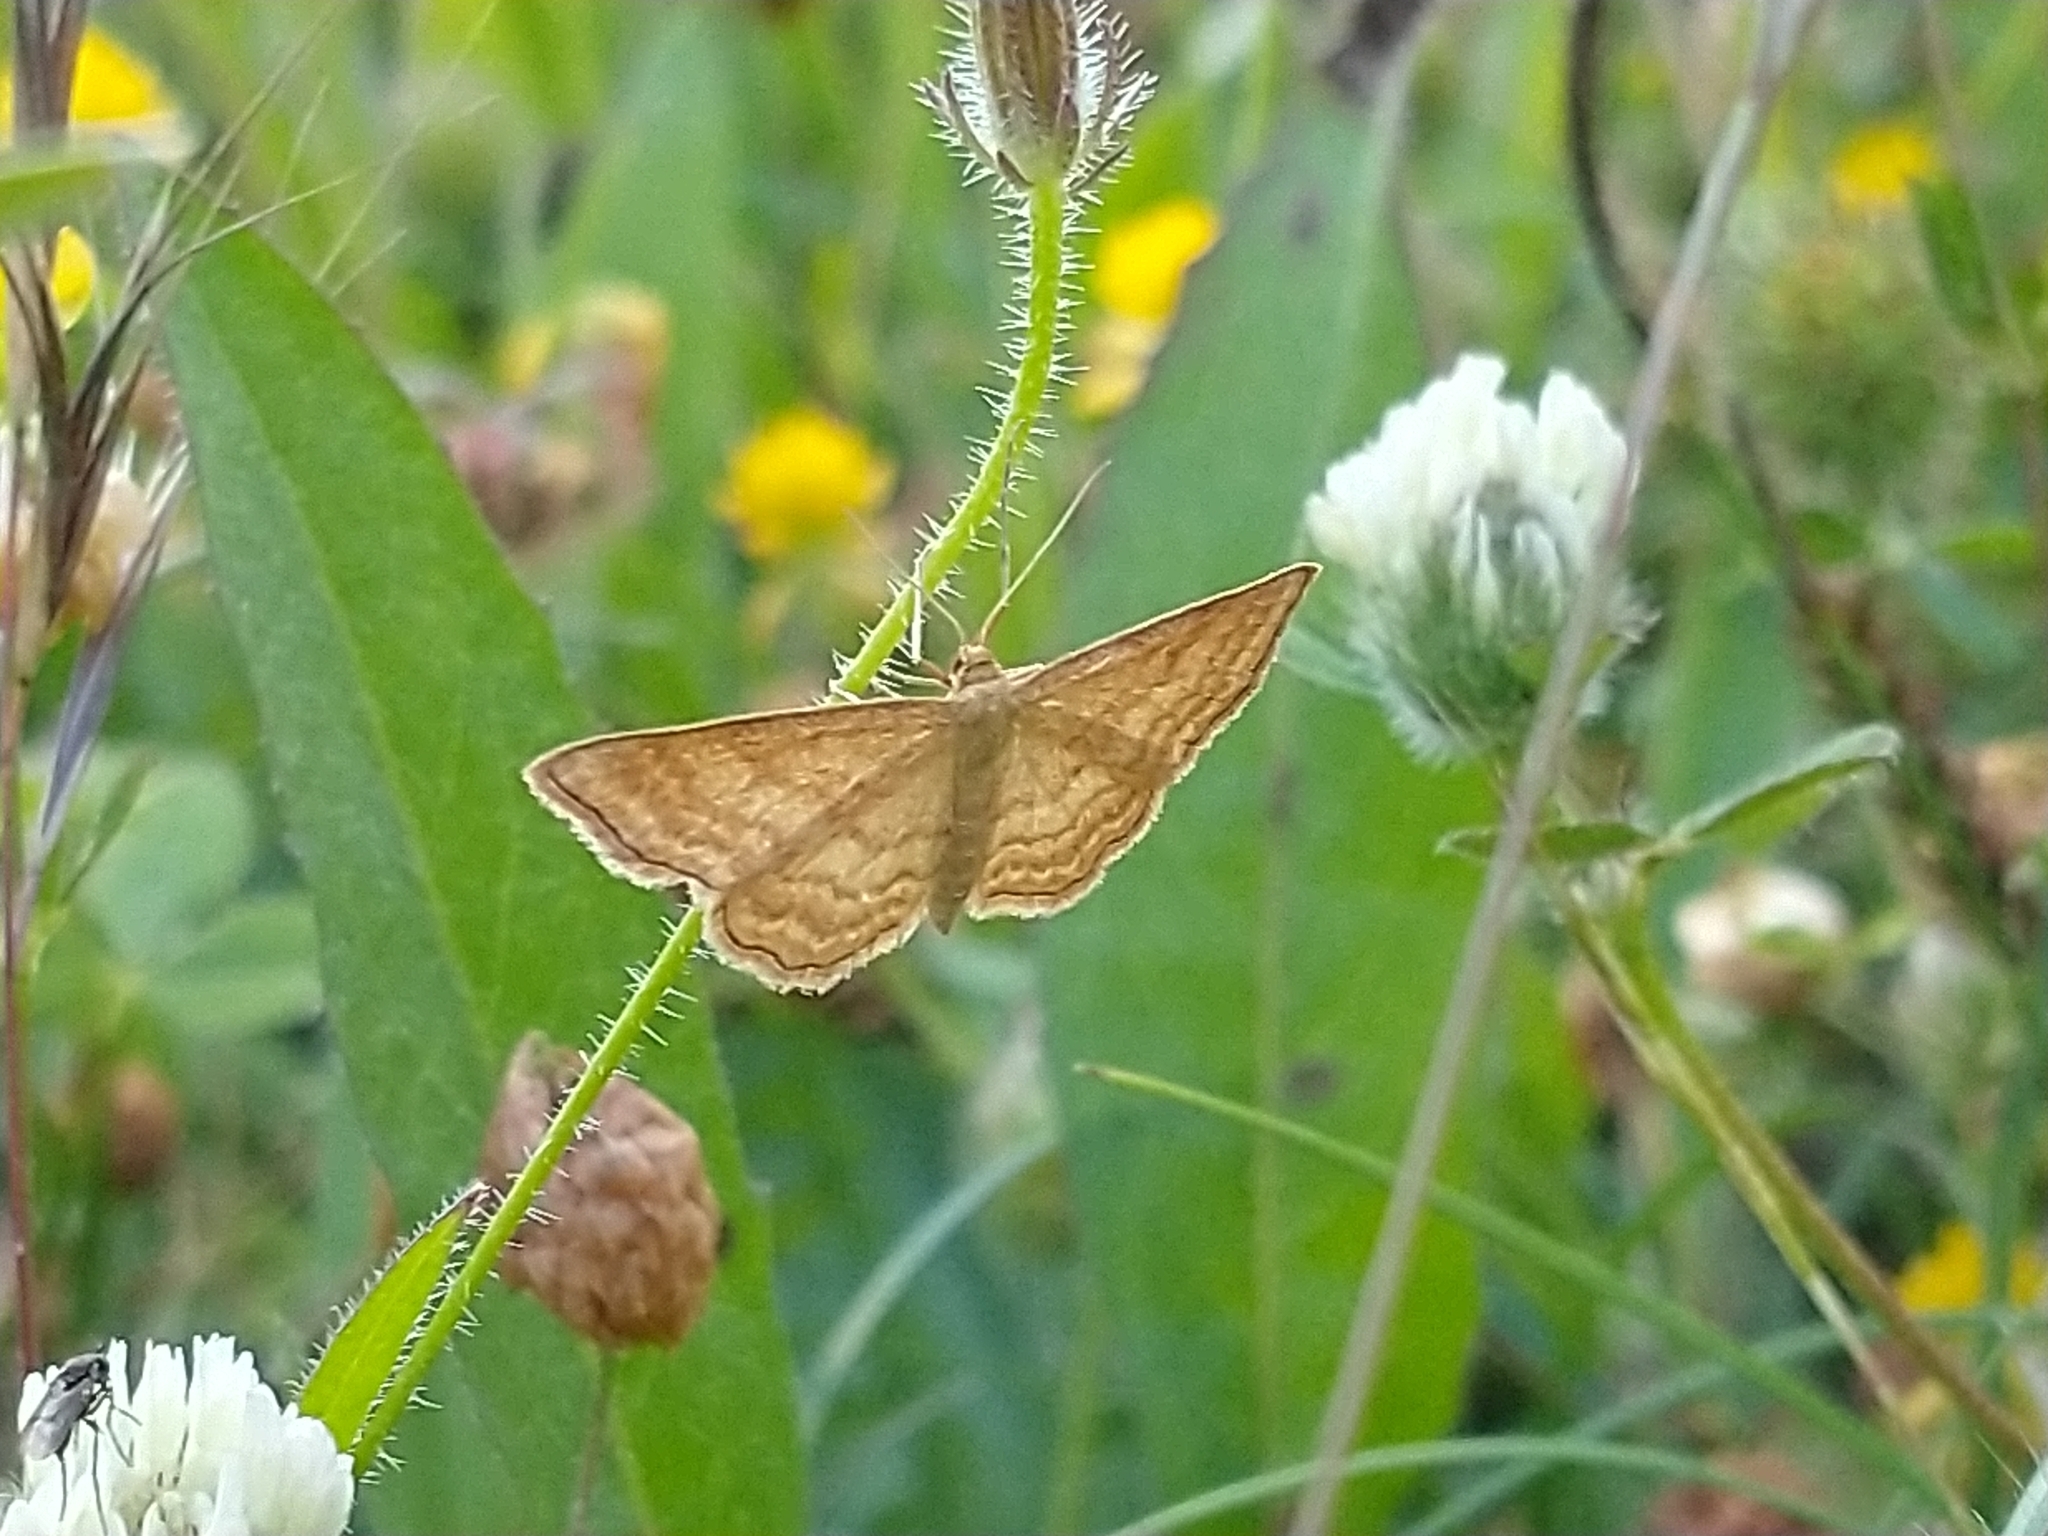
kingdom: Animalia
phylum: Arthropoda
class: Insecta
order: Lepidoptera
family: Geometridae
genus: Idaea
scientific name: Idaea ochrata
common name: Bright wave
